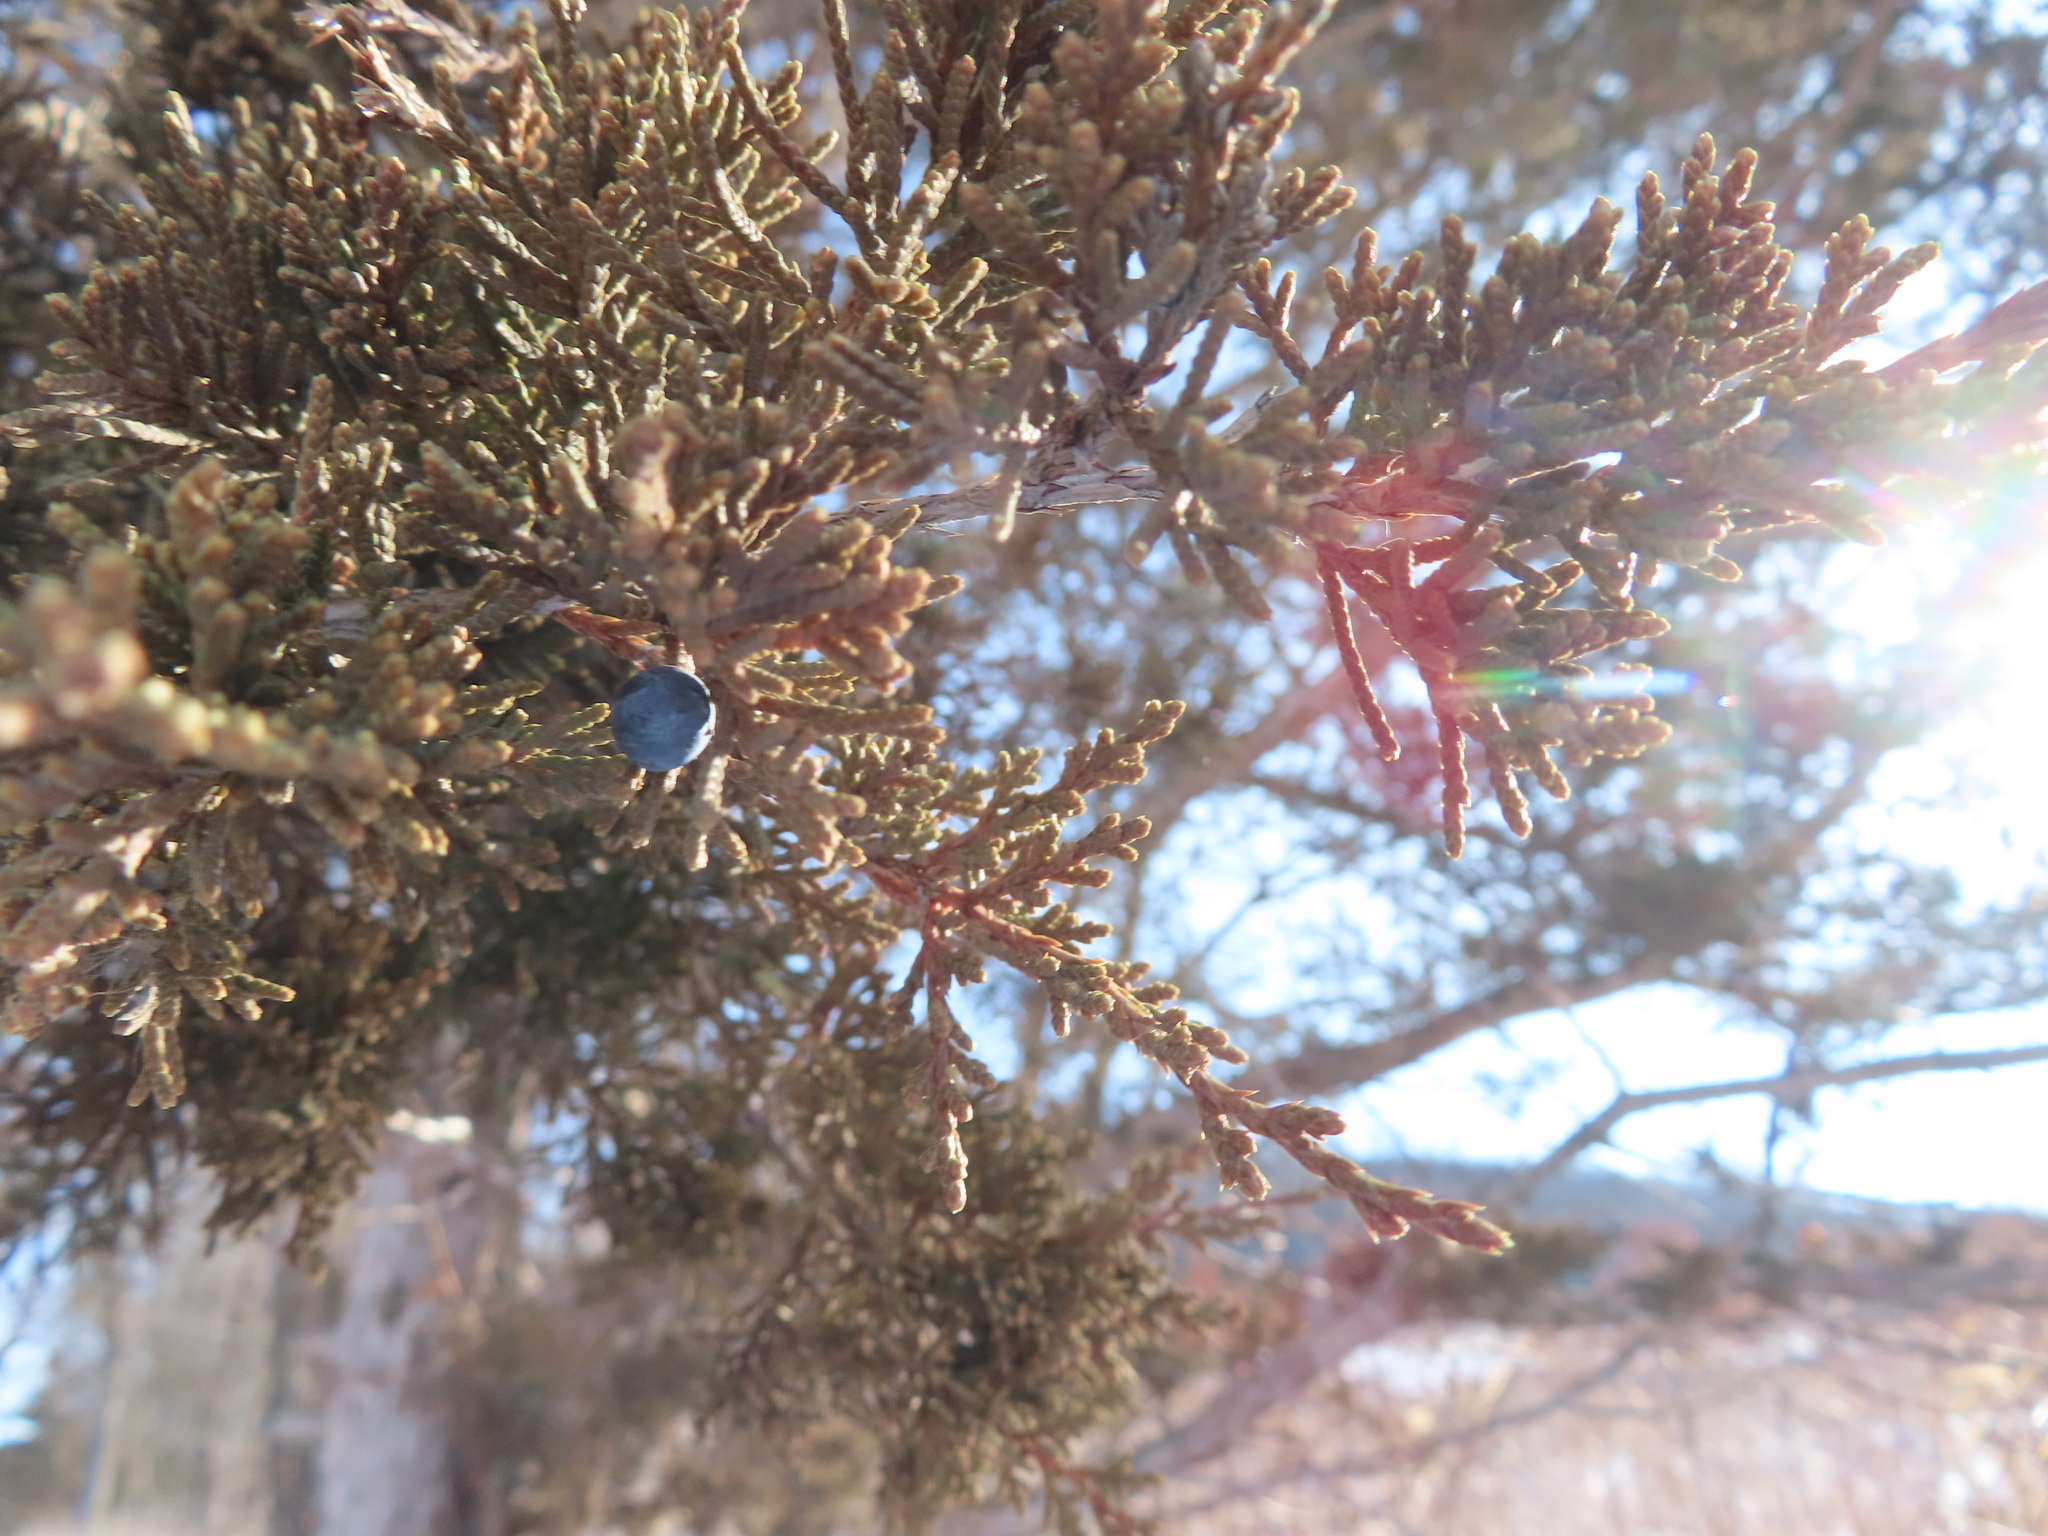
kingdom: Plantae
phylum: Tracheophyta
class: Pinopsida
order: Pinales
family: Cupressaceae
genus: Juniperus
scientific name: Juniperus virginiana
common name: Red juniper
